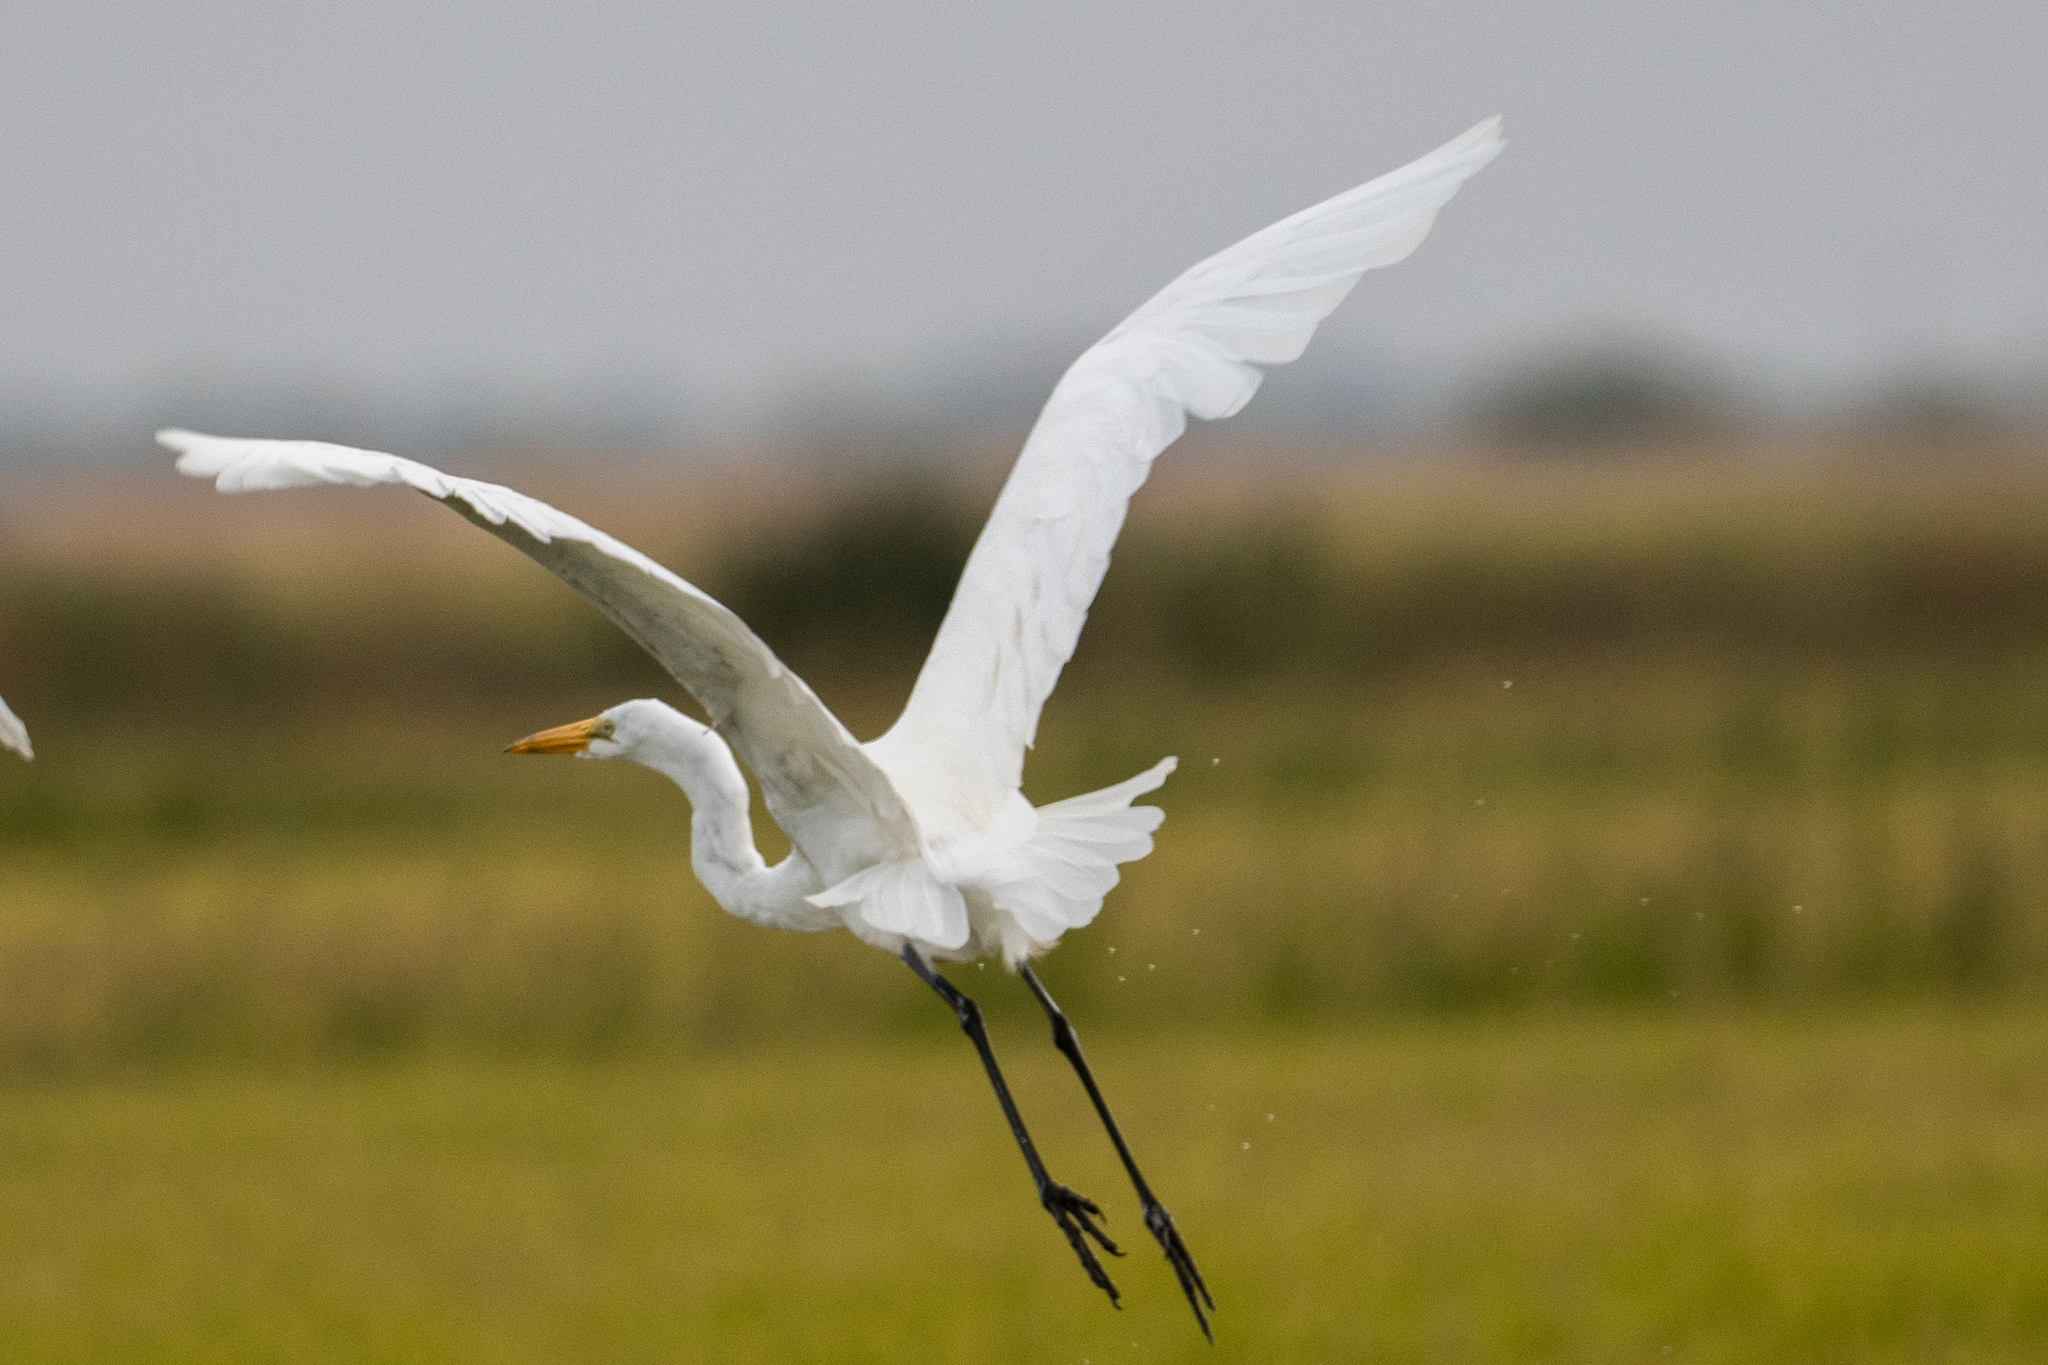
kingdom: Animalia
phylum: Chordata
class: Aves
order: Pelecaniformes
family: Ardeidae
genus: Ardea
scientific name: Ardea alba
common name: Great egret
